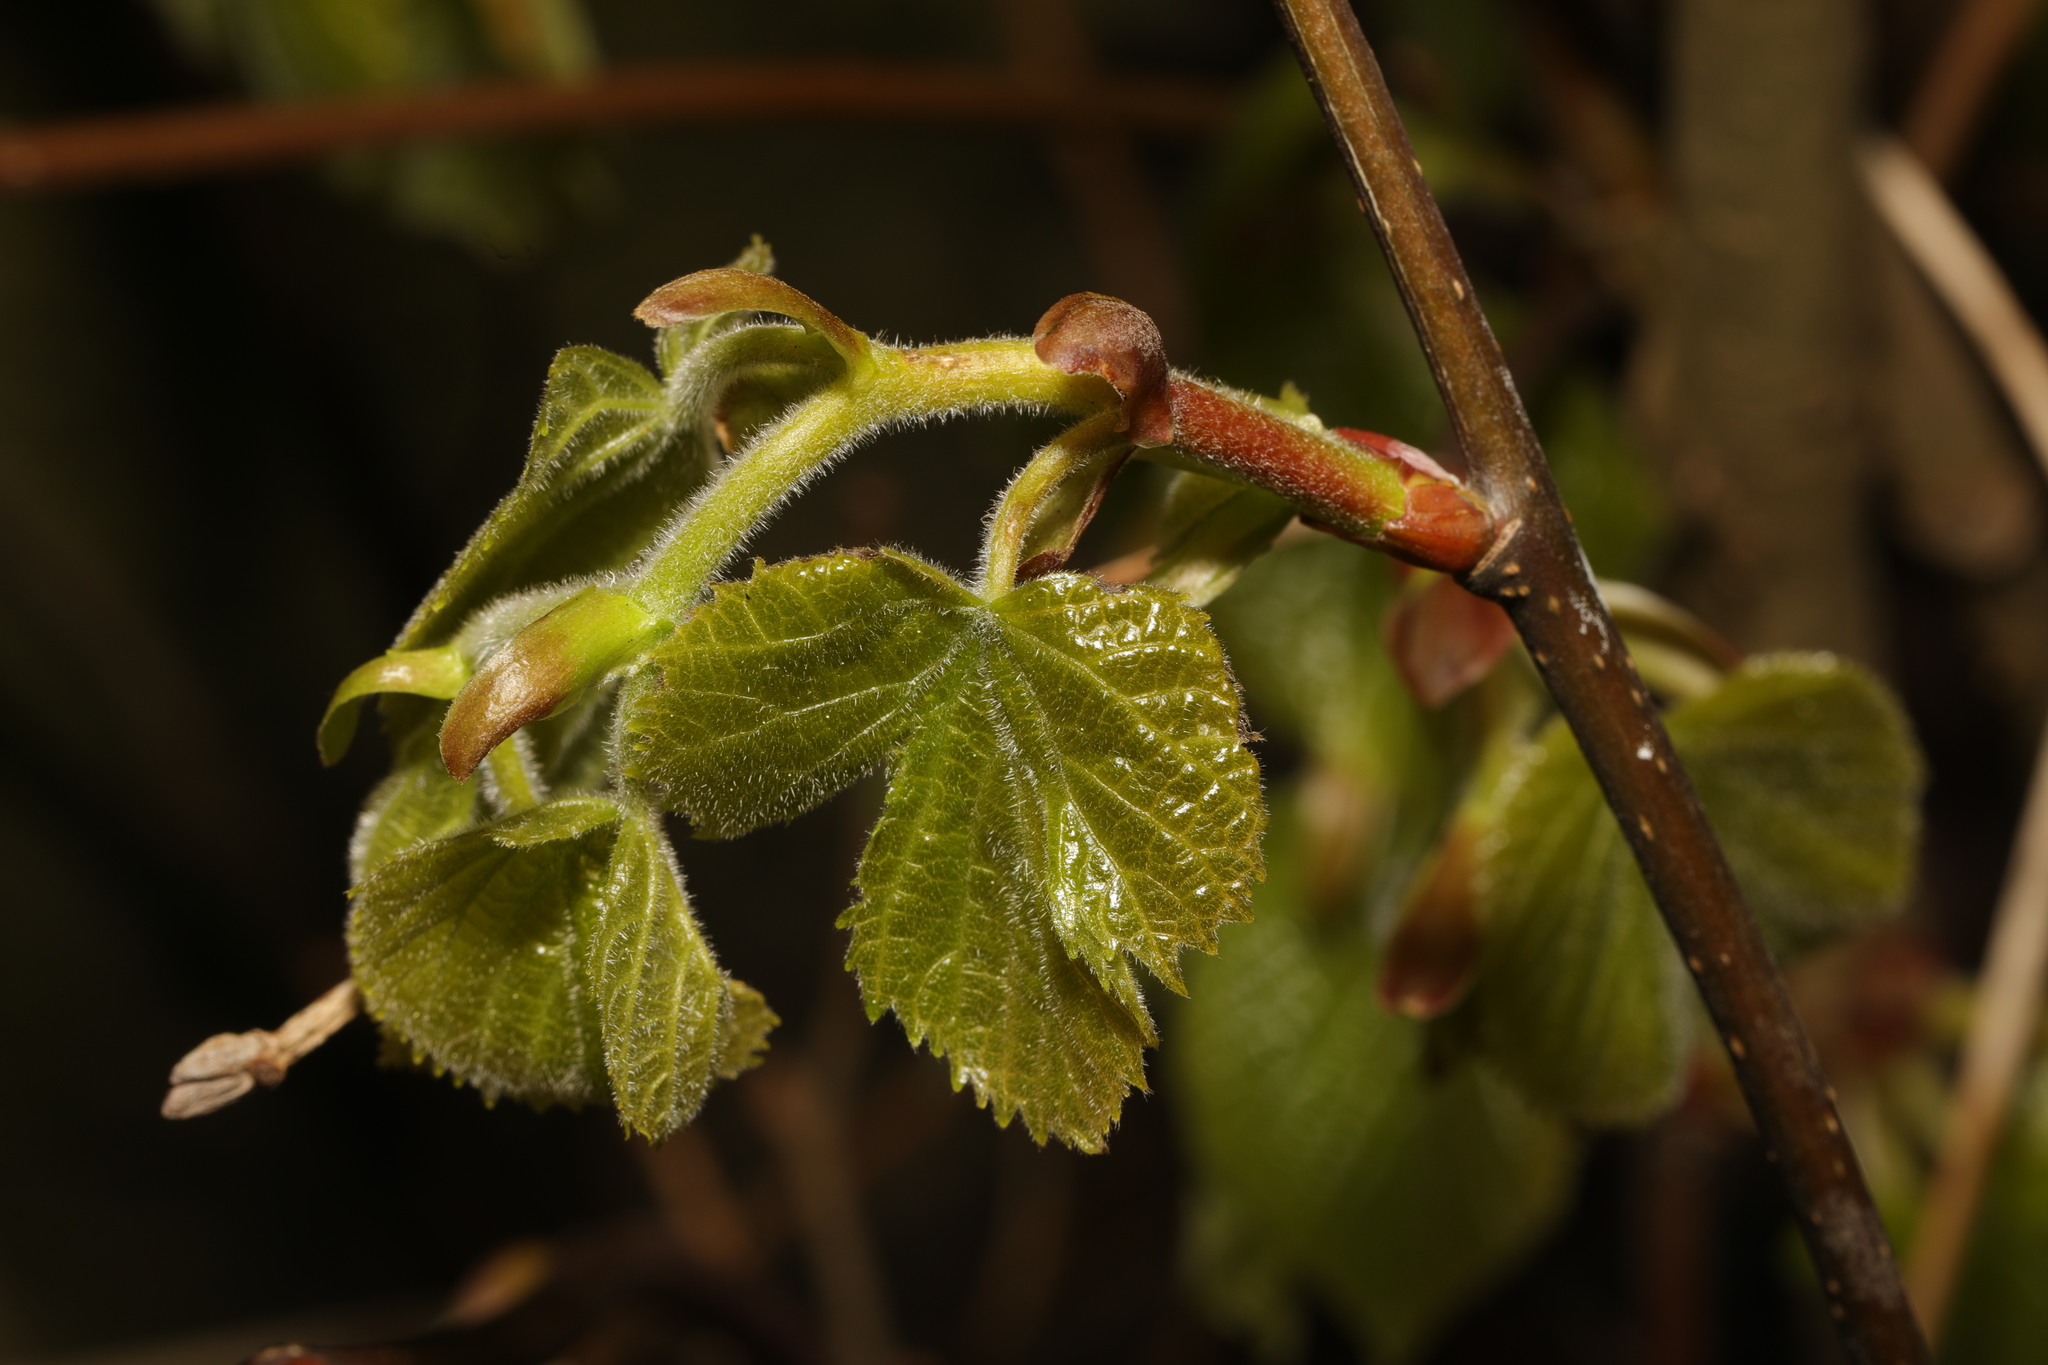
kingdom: Plantae
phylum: Tracheophyta
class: Magnoliopsida
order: Malvales
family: Malvaceae
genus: Tilia
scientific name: Tilia europaea
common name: European linden
